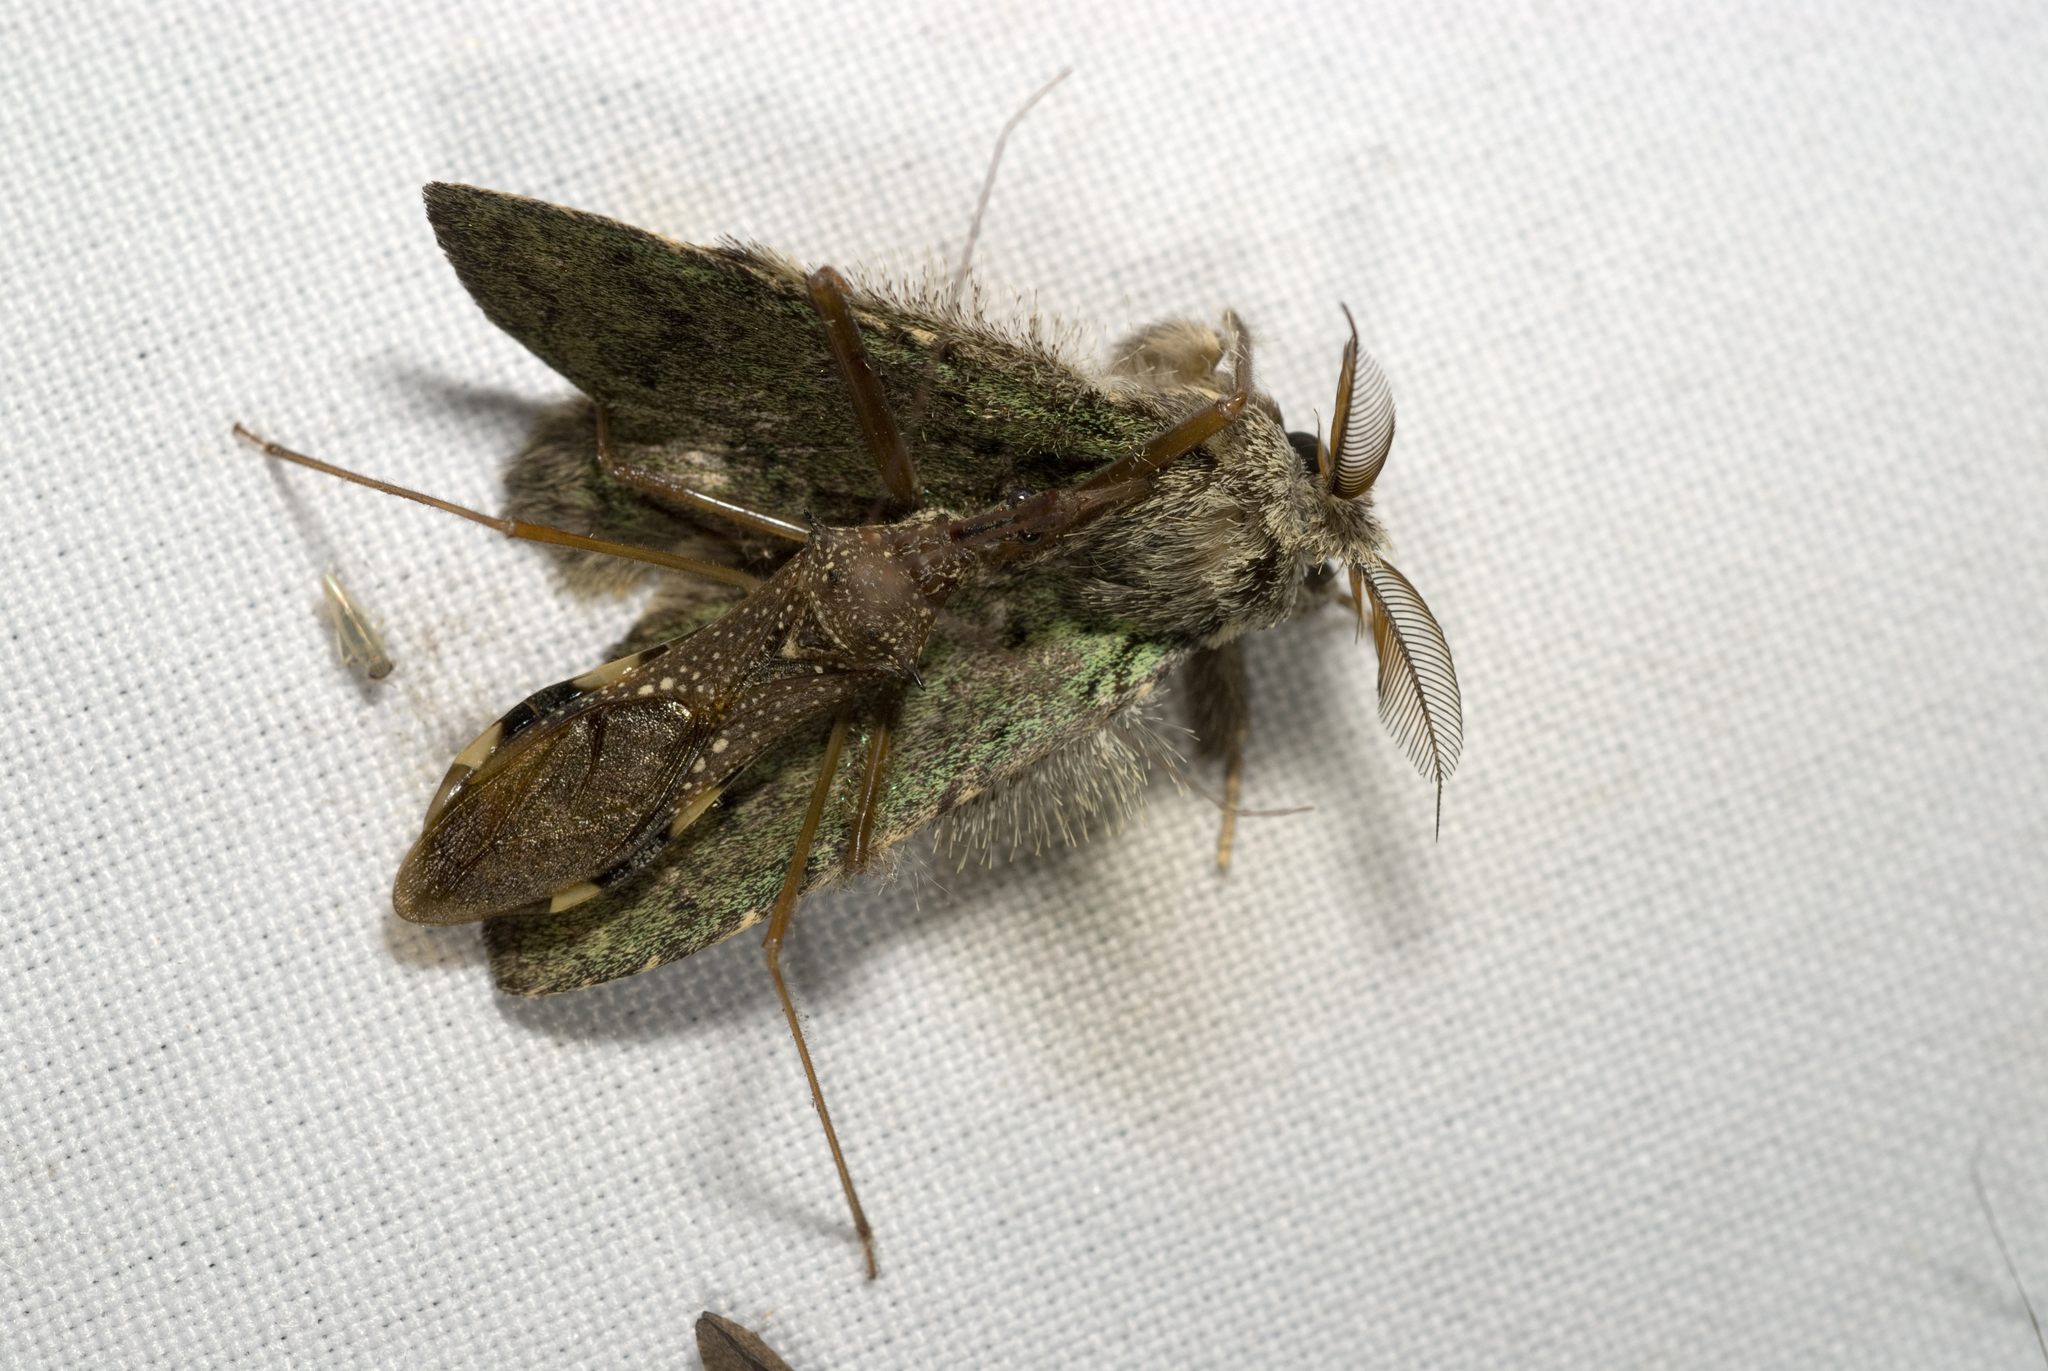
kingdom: Animalia
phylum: Arthropoda
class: Insecta
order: Hemiptera
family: Reduviidae
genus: Epidaus
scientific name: Epidaus sexspinus
